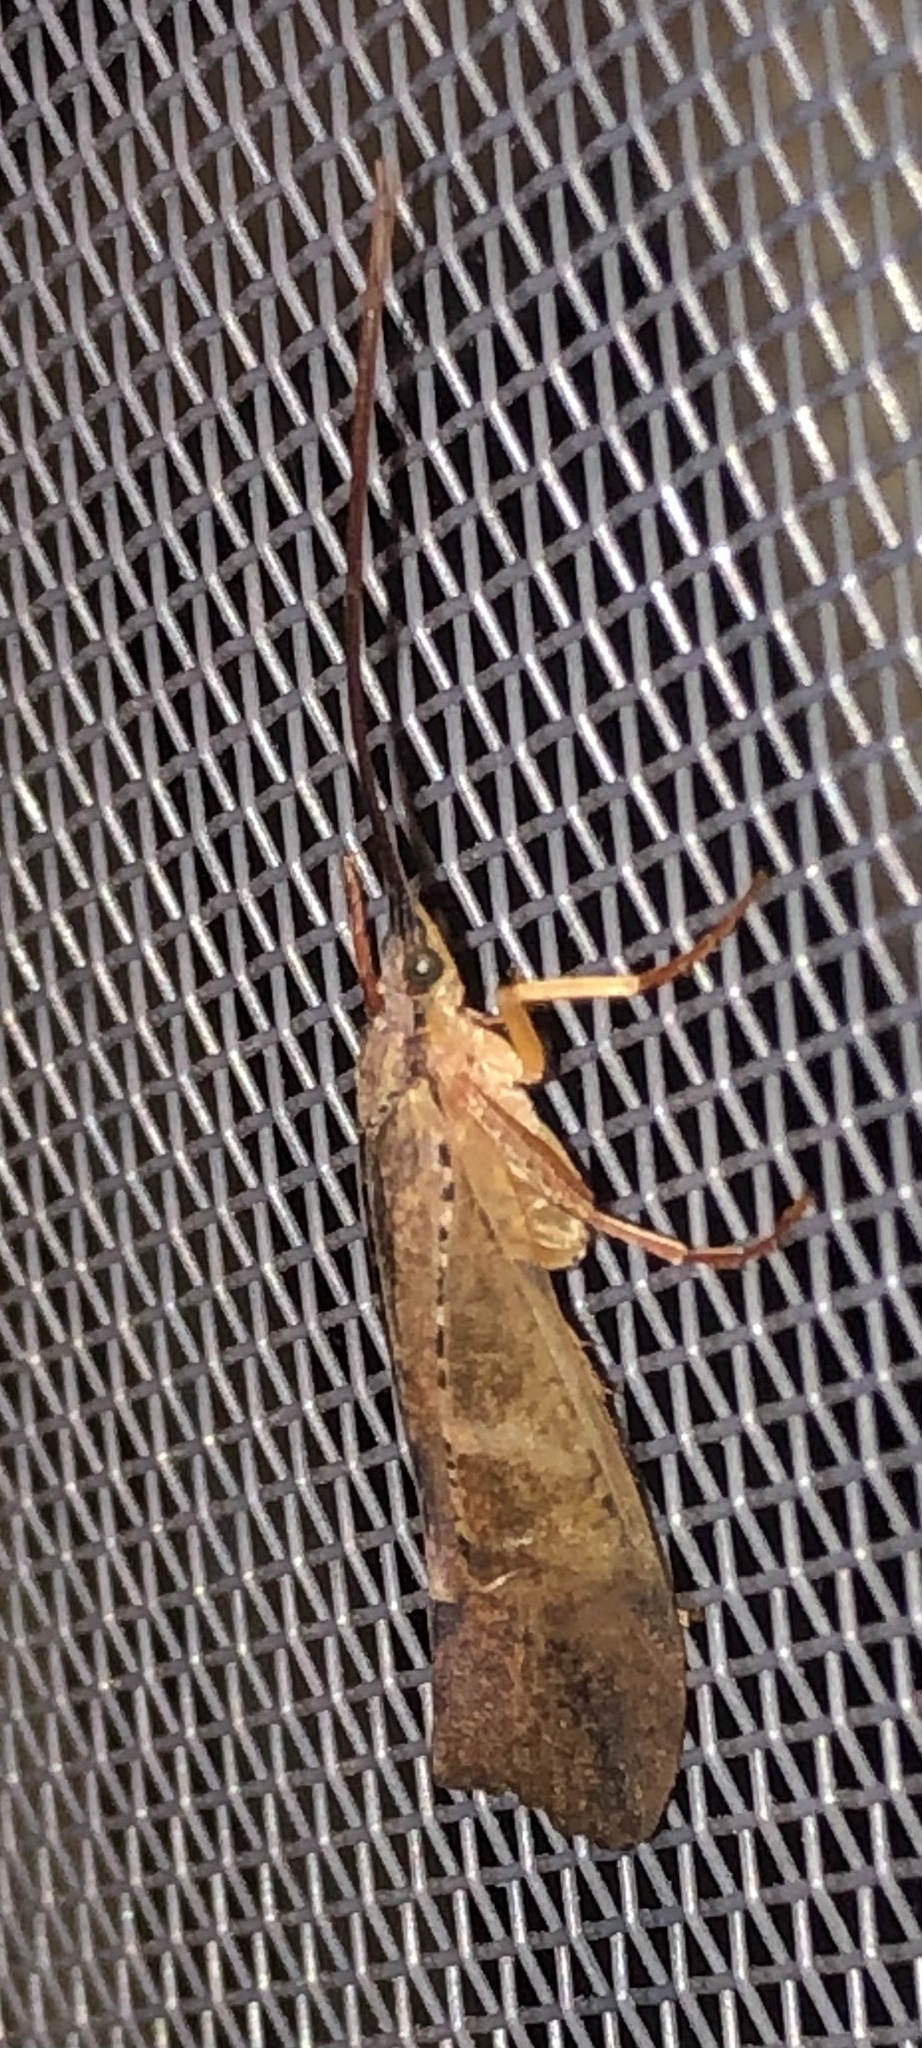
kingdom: Animalia
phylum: Arthropoda
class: Insecta
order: Trichoptera
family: Limnephilidae
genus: Nemotaulius
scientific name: Nemotaulius hostilis
